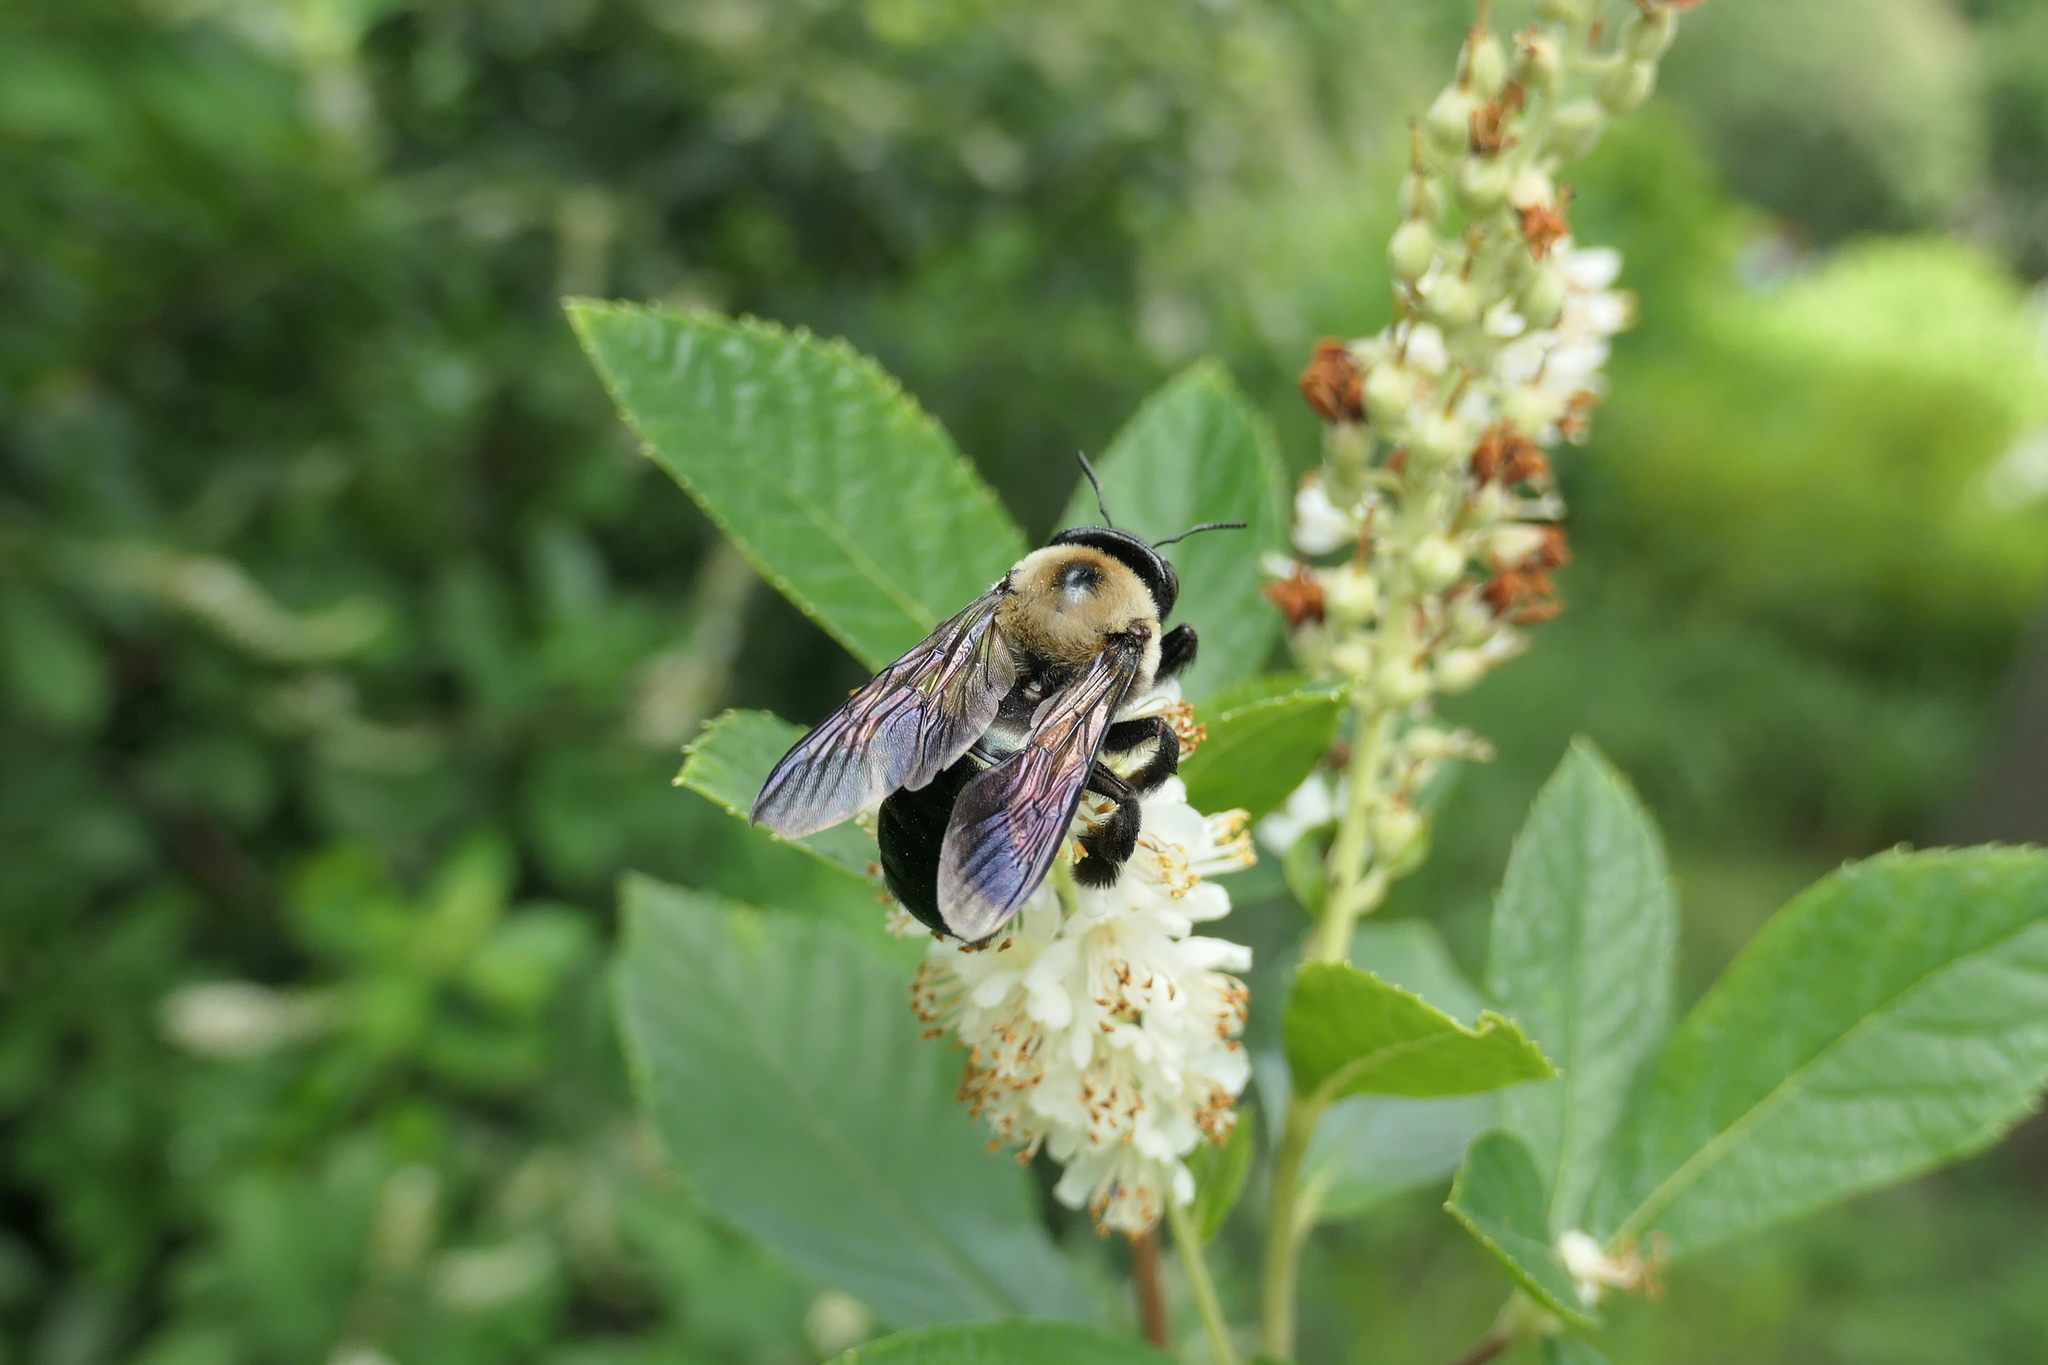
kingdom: Animalia
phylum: Arthropoda
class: Insecta
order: Hymenoptera
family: Apidae
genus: Xylocopa
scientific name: Xylocopa virginica
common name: Carpenter bee
